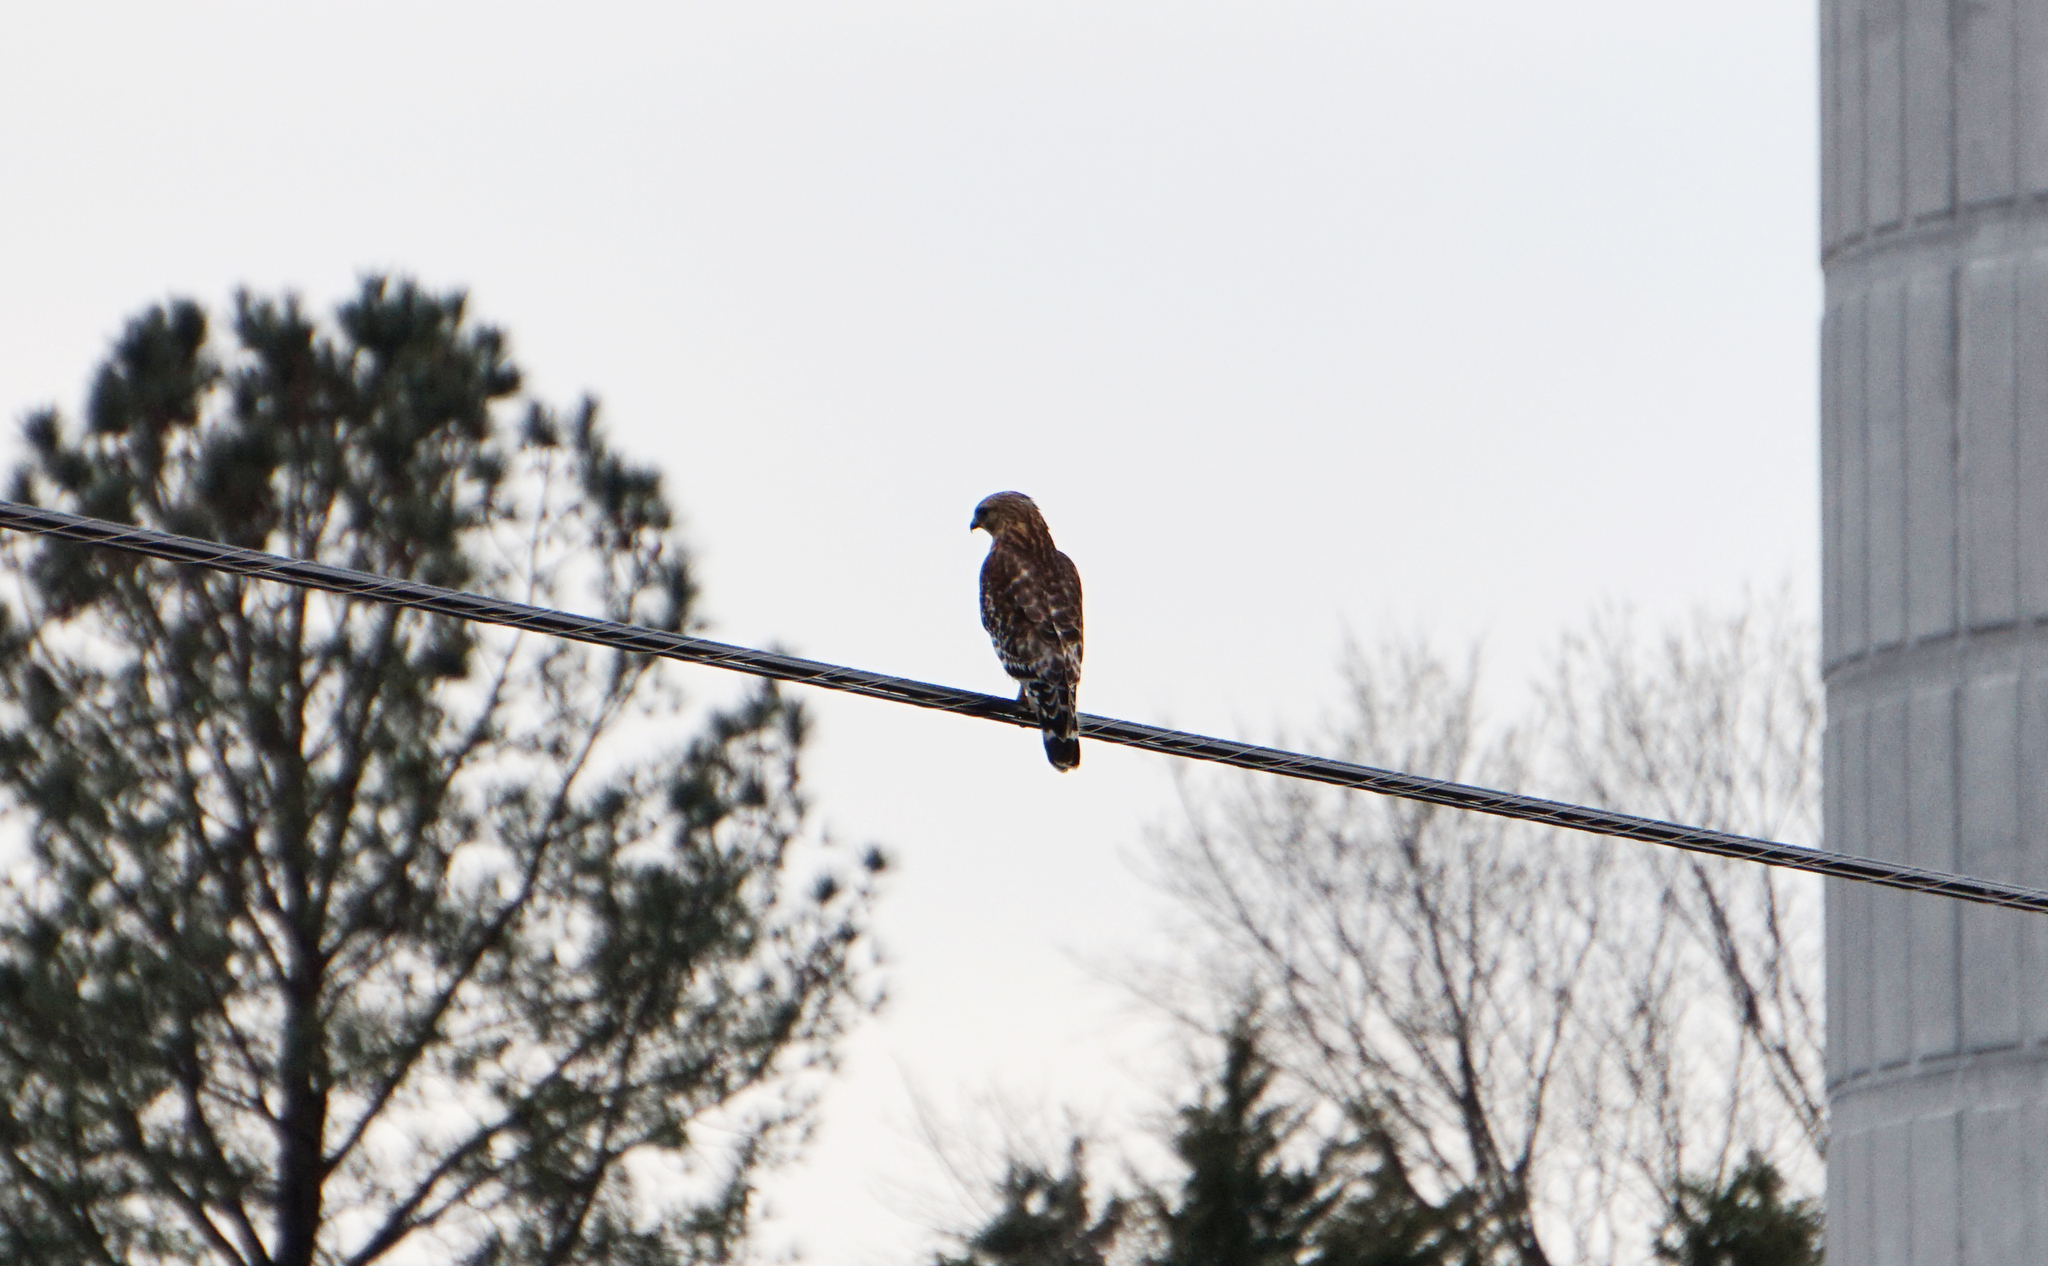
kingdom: Animalia
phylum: Chordata
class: Aves
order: Accipitriformes
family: Accipitridae
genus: Buteo
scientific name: Buteo lineatus
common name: Red-shouldered hawk
